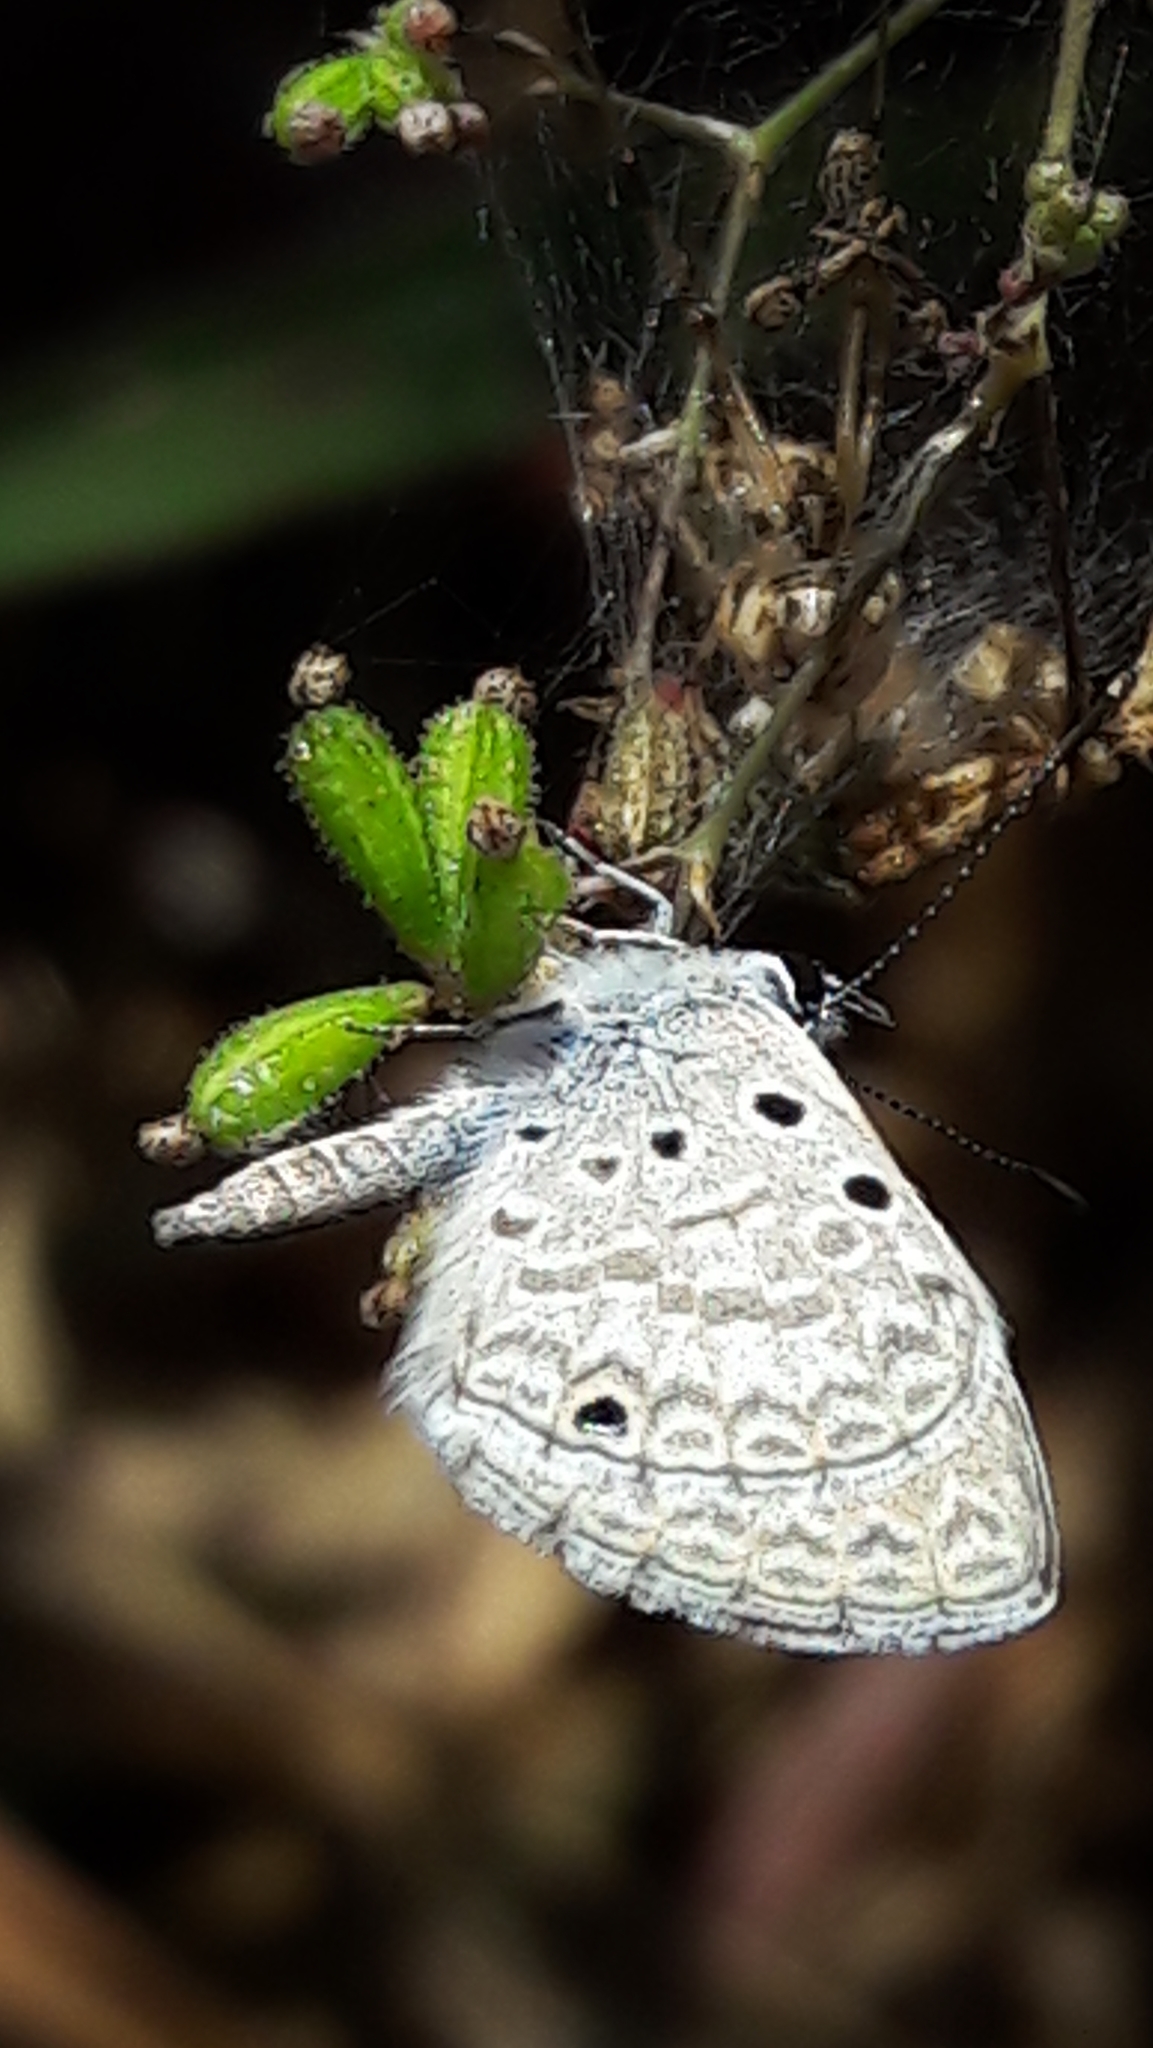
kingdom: Animalia
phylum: Arthropoda
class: Insecta
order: Lepidoptera
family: Lycaenidae
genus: Hemiargus
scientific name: Hemiargus hanno
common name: Common blue
